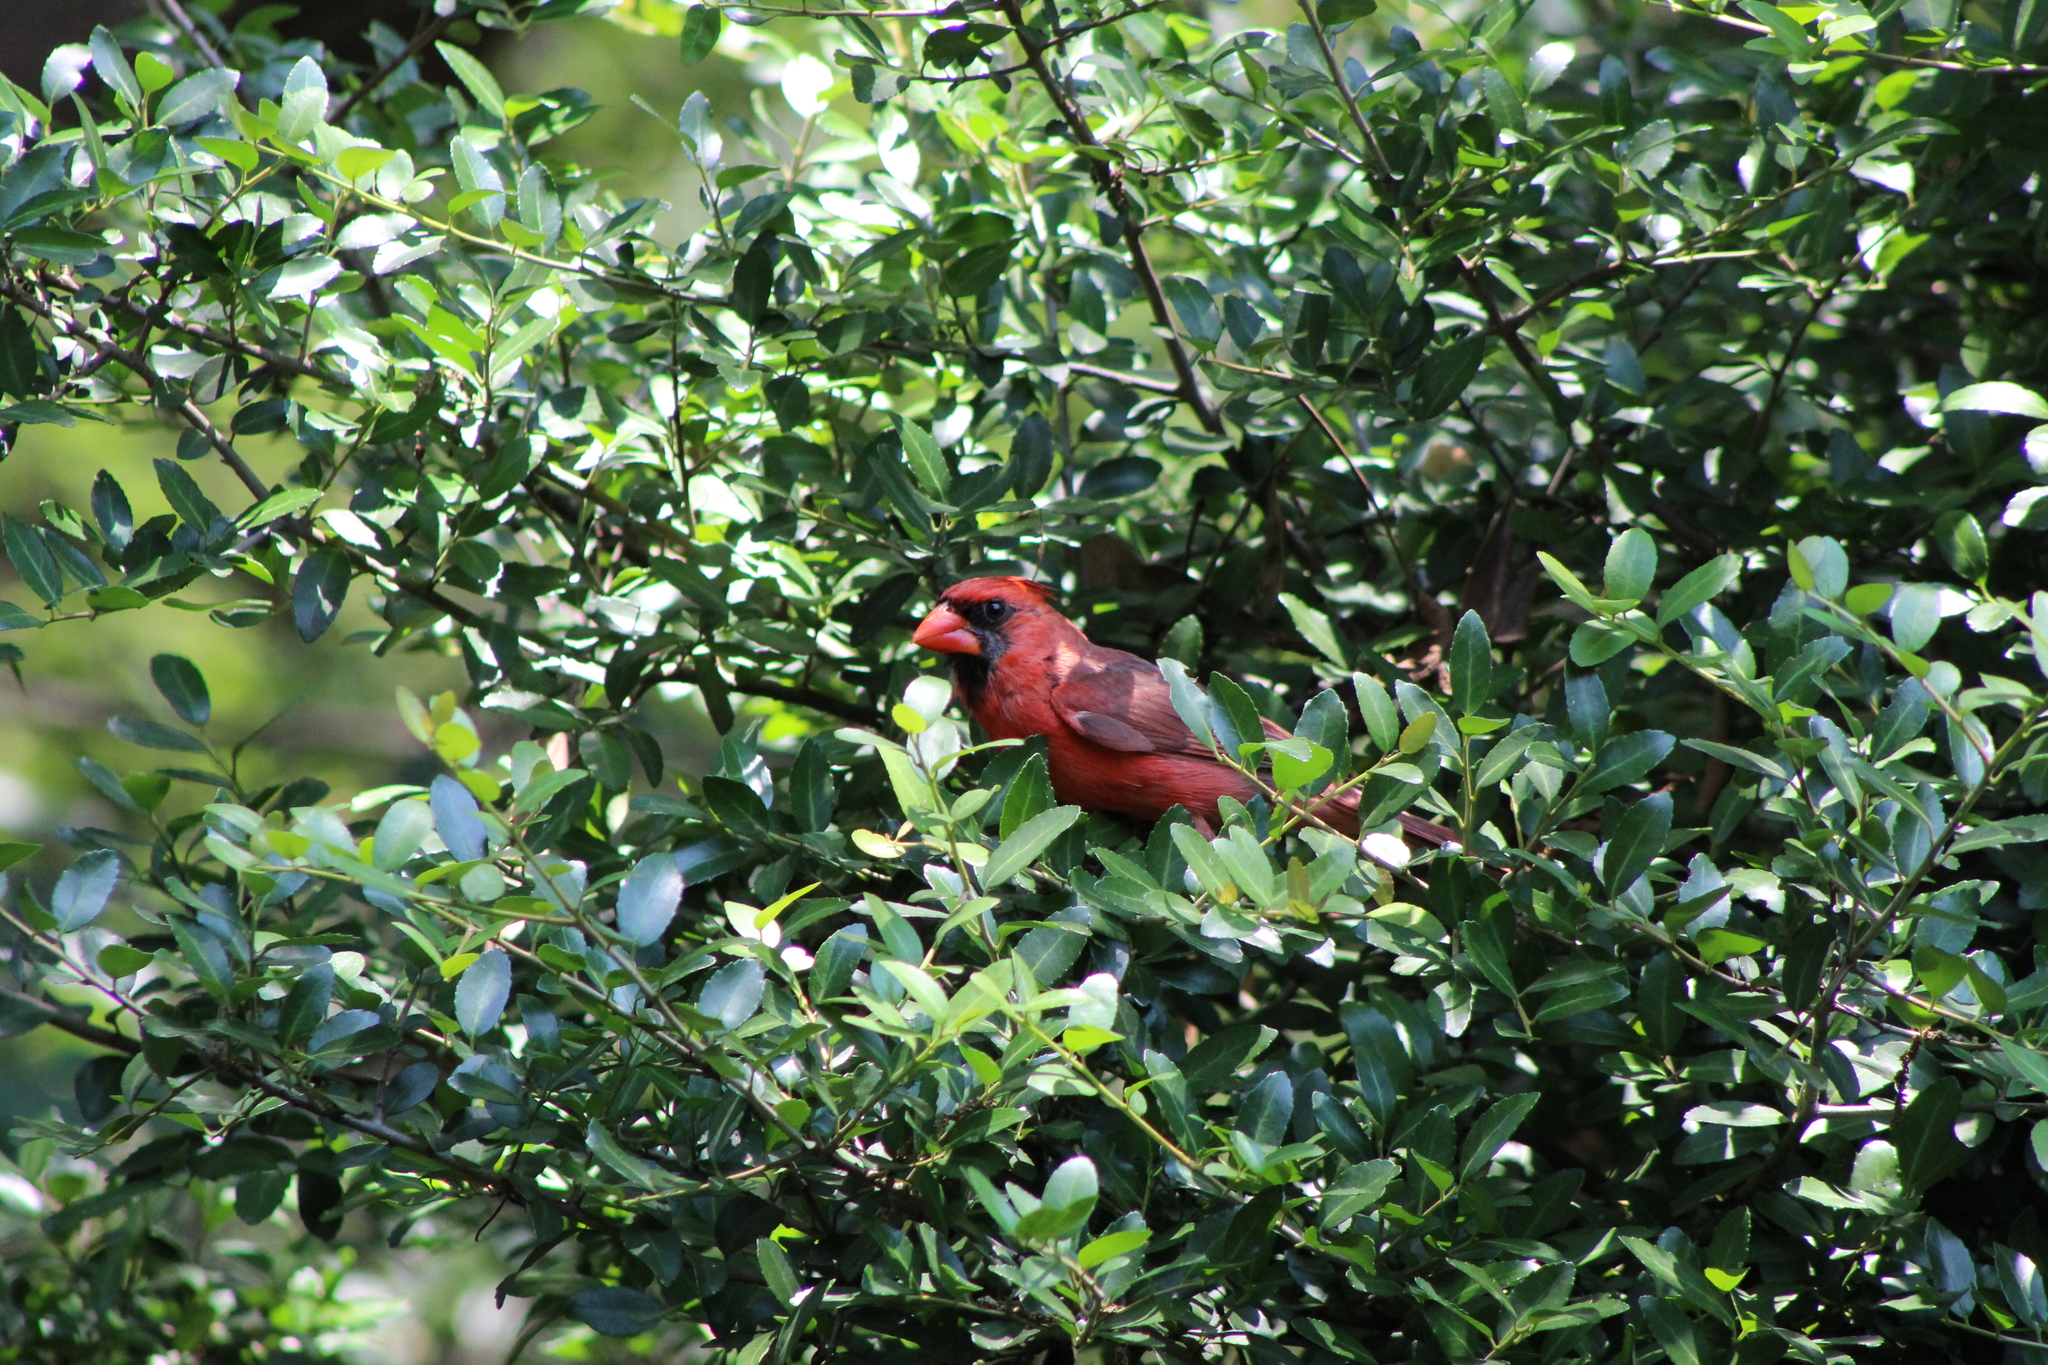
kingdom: Animalia
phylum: Chordata
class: Aves
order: Passeriformes
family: Cardinalidae
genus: Cardinalis
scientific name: Cardinalis cardinalis
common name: Northern cardinal
